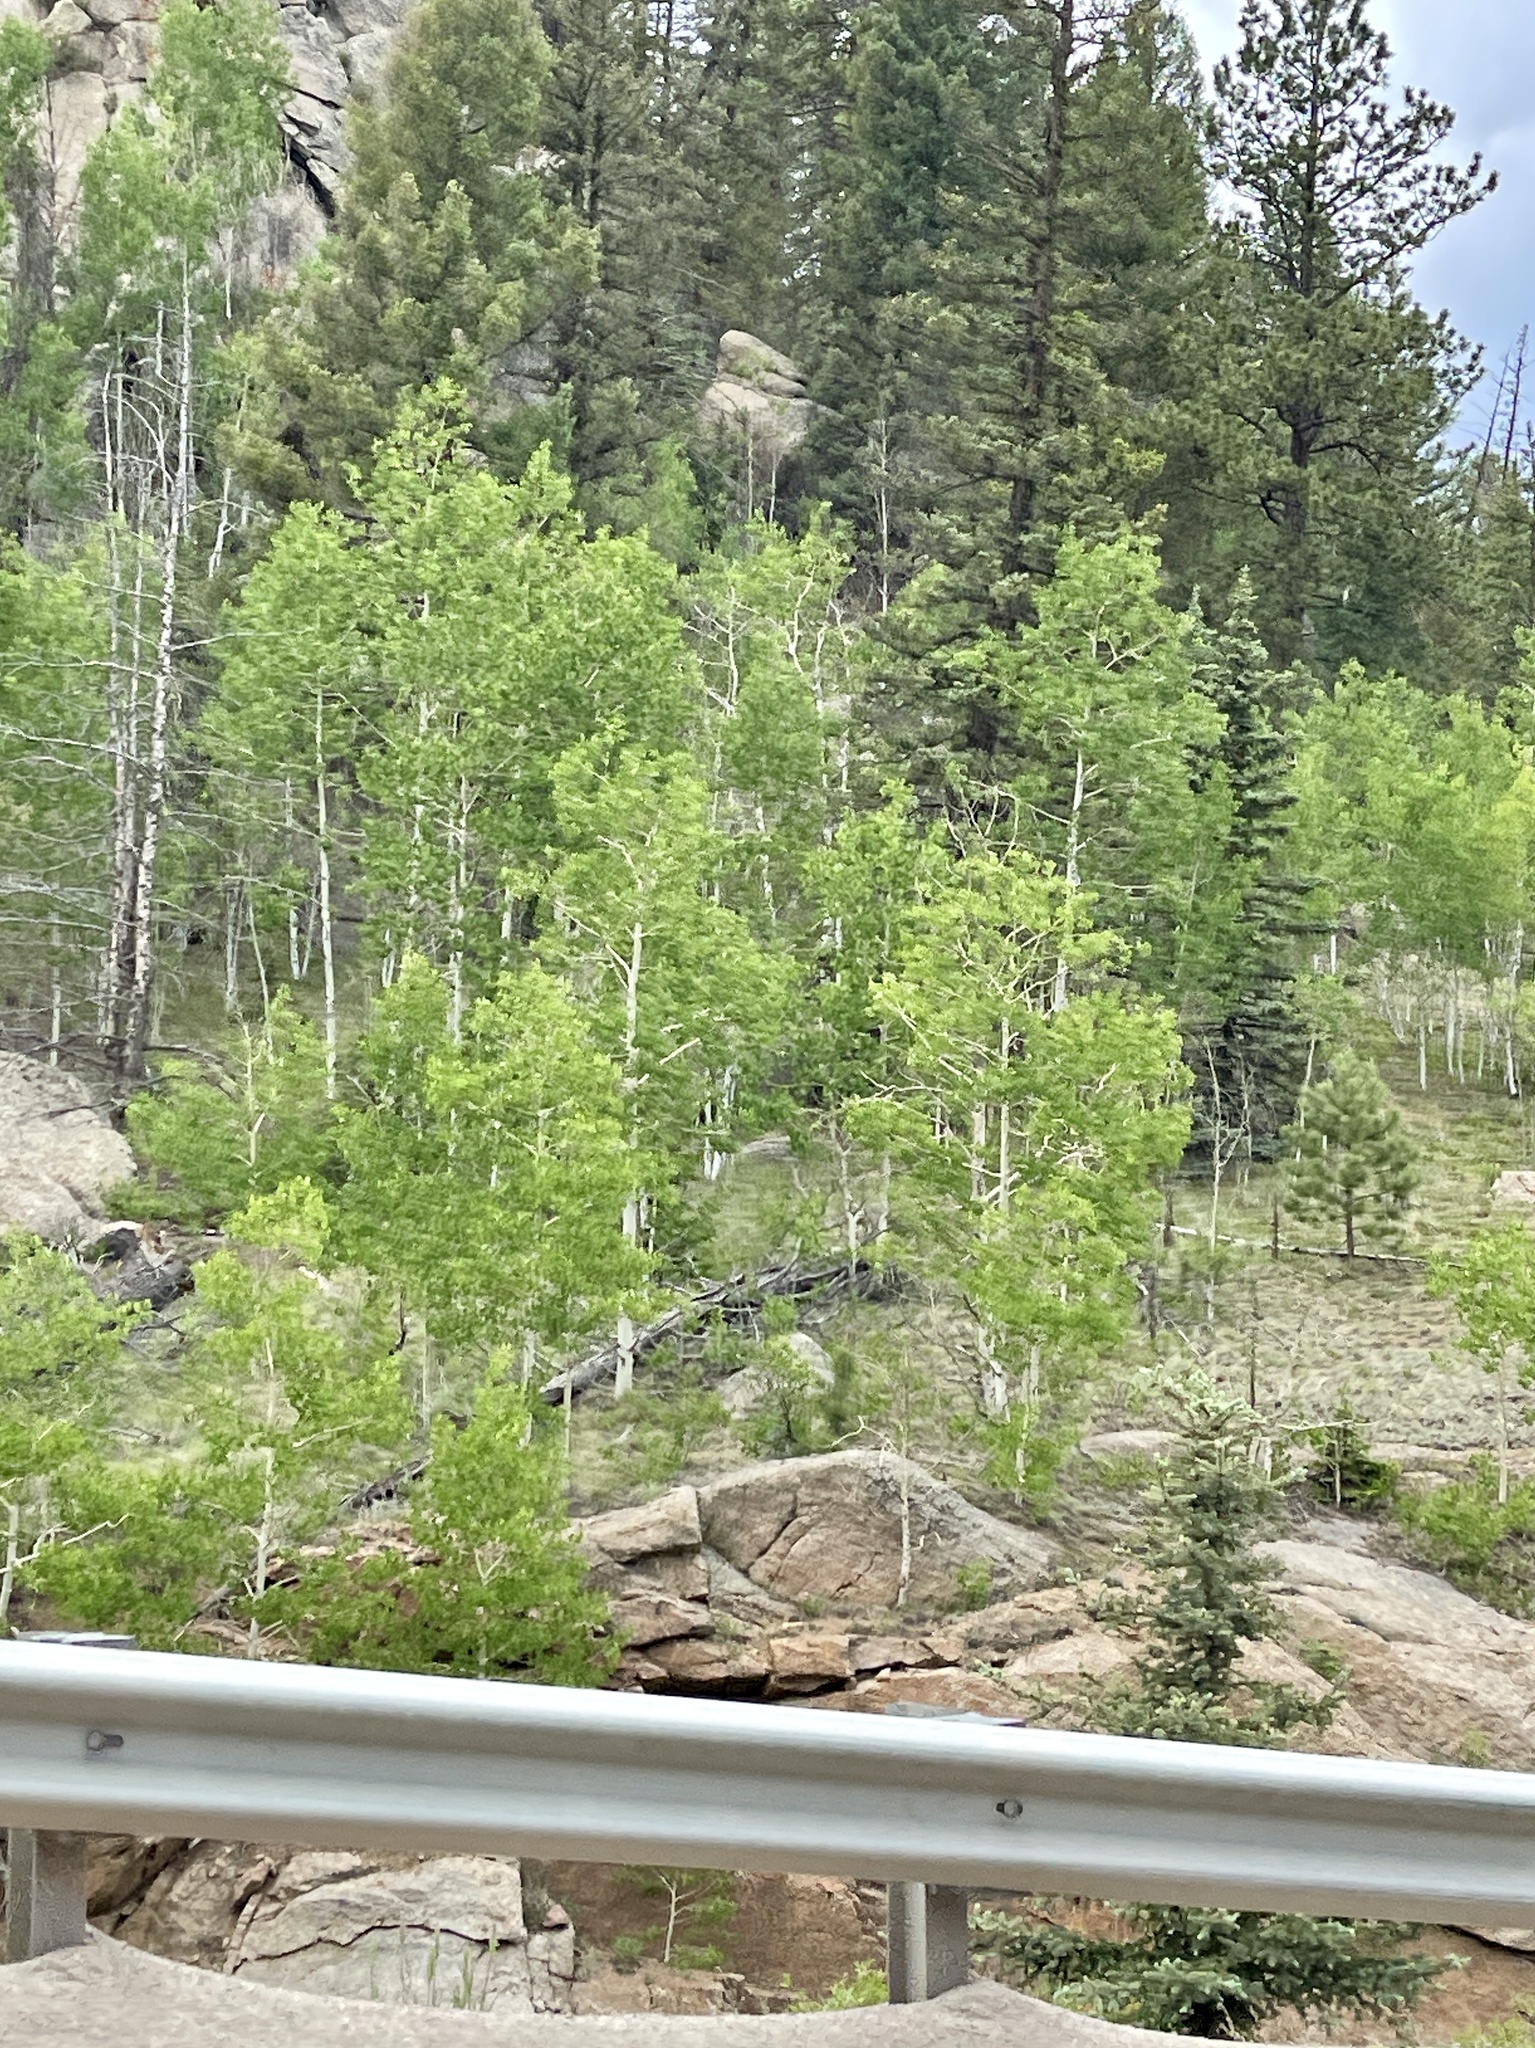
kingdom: Plantae
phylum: Tracheophyta
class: Magnoliopsida
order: Malpighiales
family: Salicaceae
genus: Populus
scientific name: Populus tremuloides
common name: Quaking aspen
